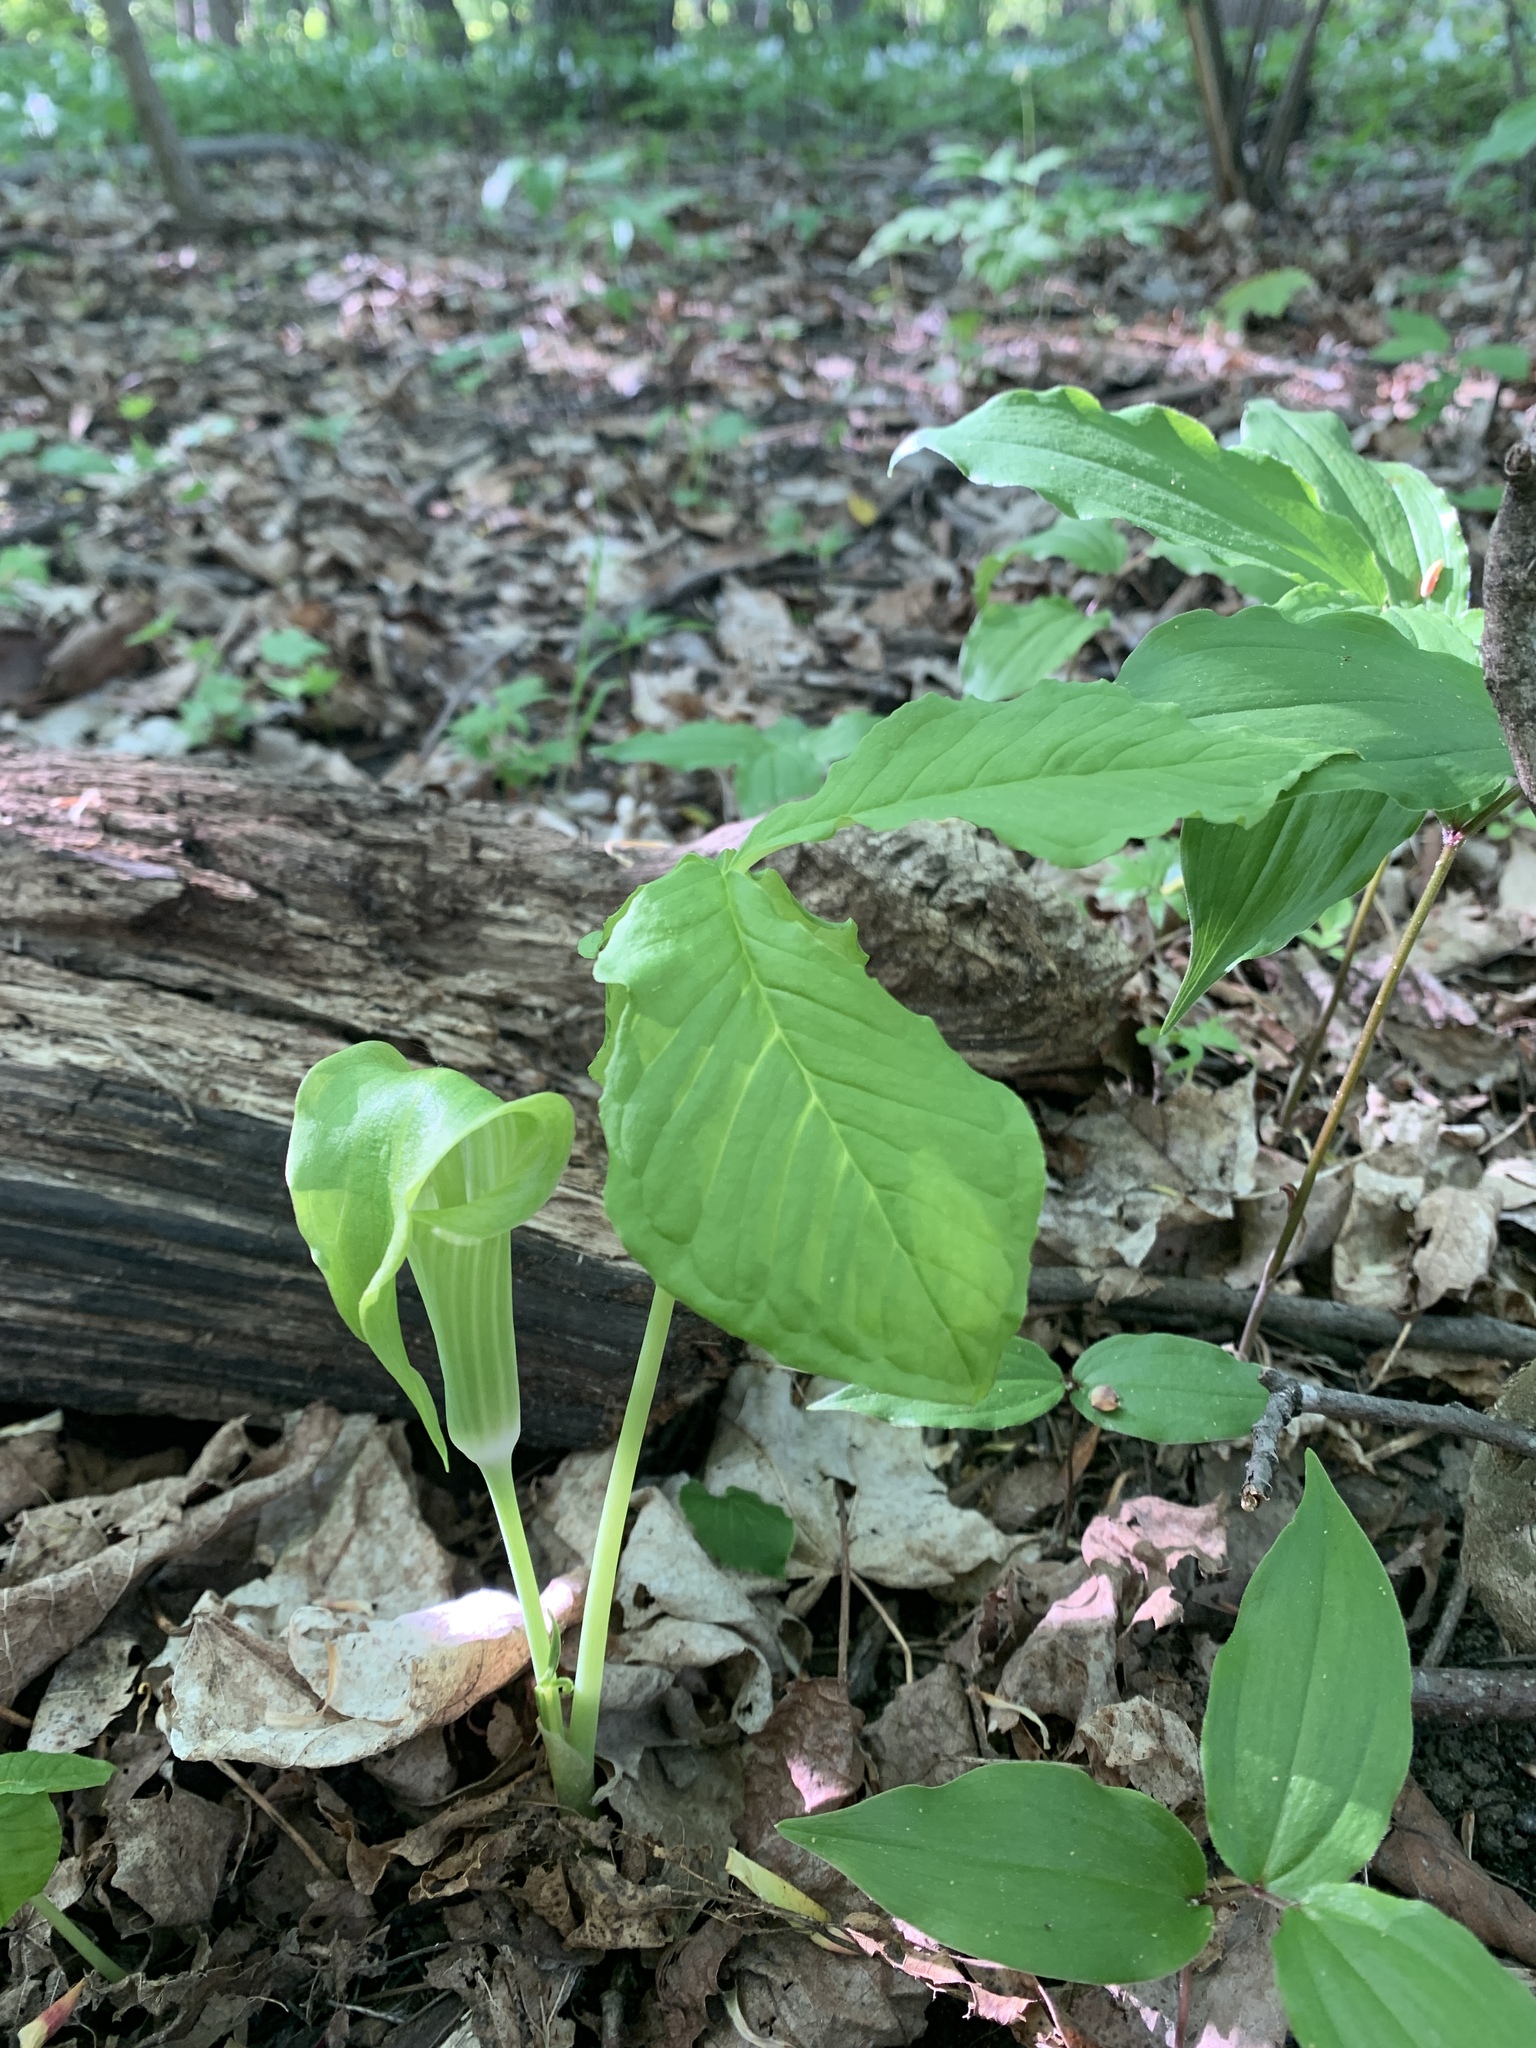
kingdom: Plantae
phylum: Tracheophyta
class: Liliopsida
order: Alismatales
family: Araceae
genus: Arisaema
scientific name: Arisaema triphyllum
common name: Jack-in-the-pulpit
